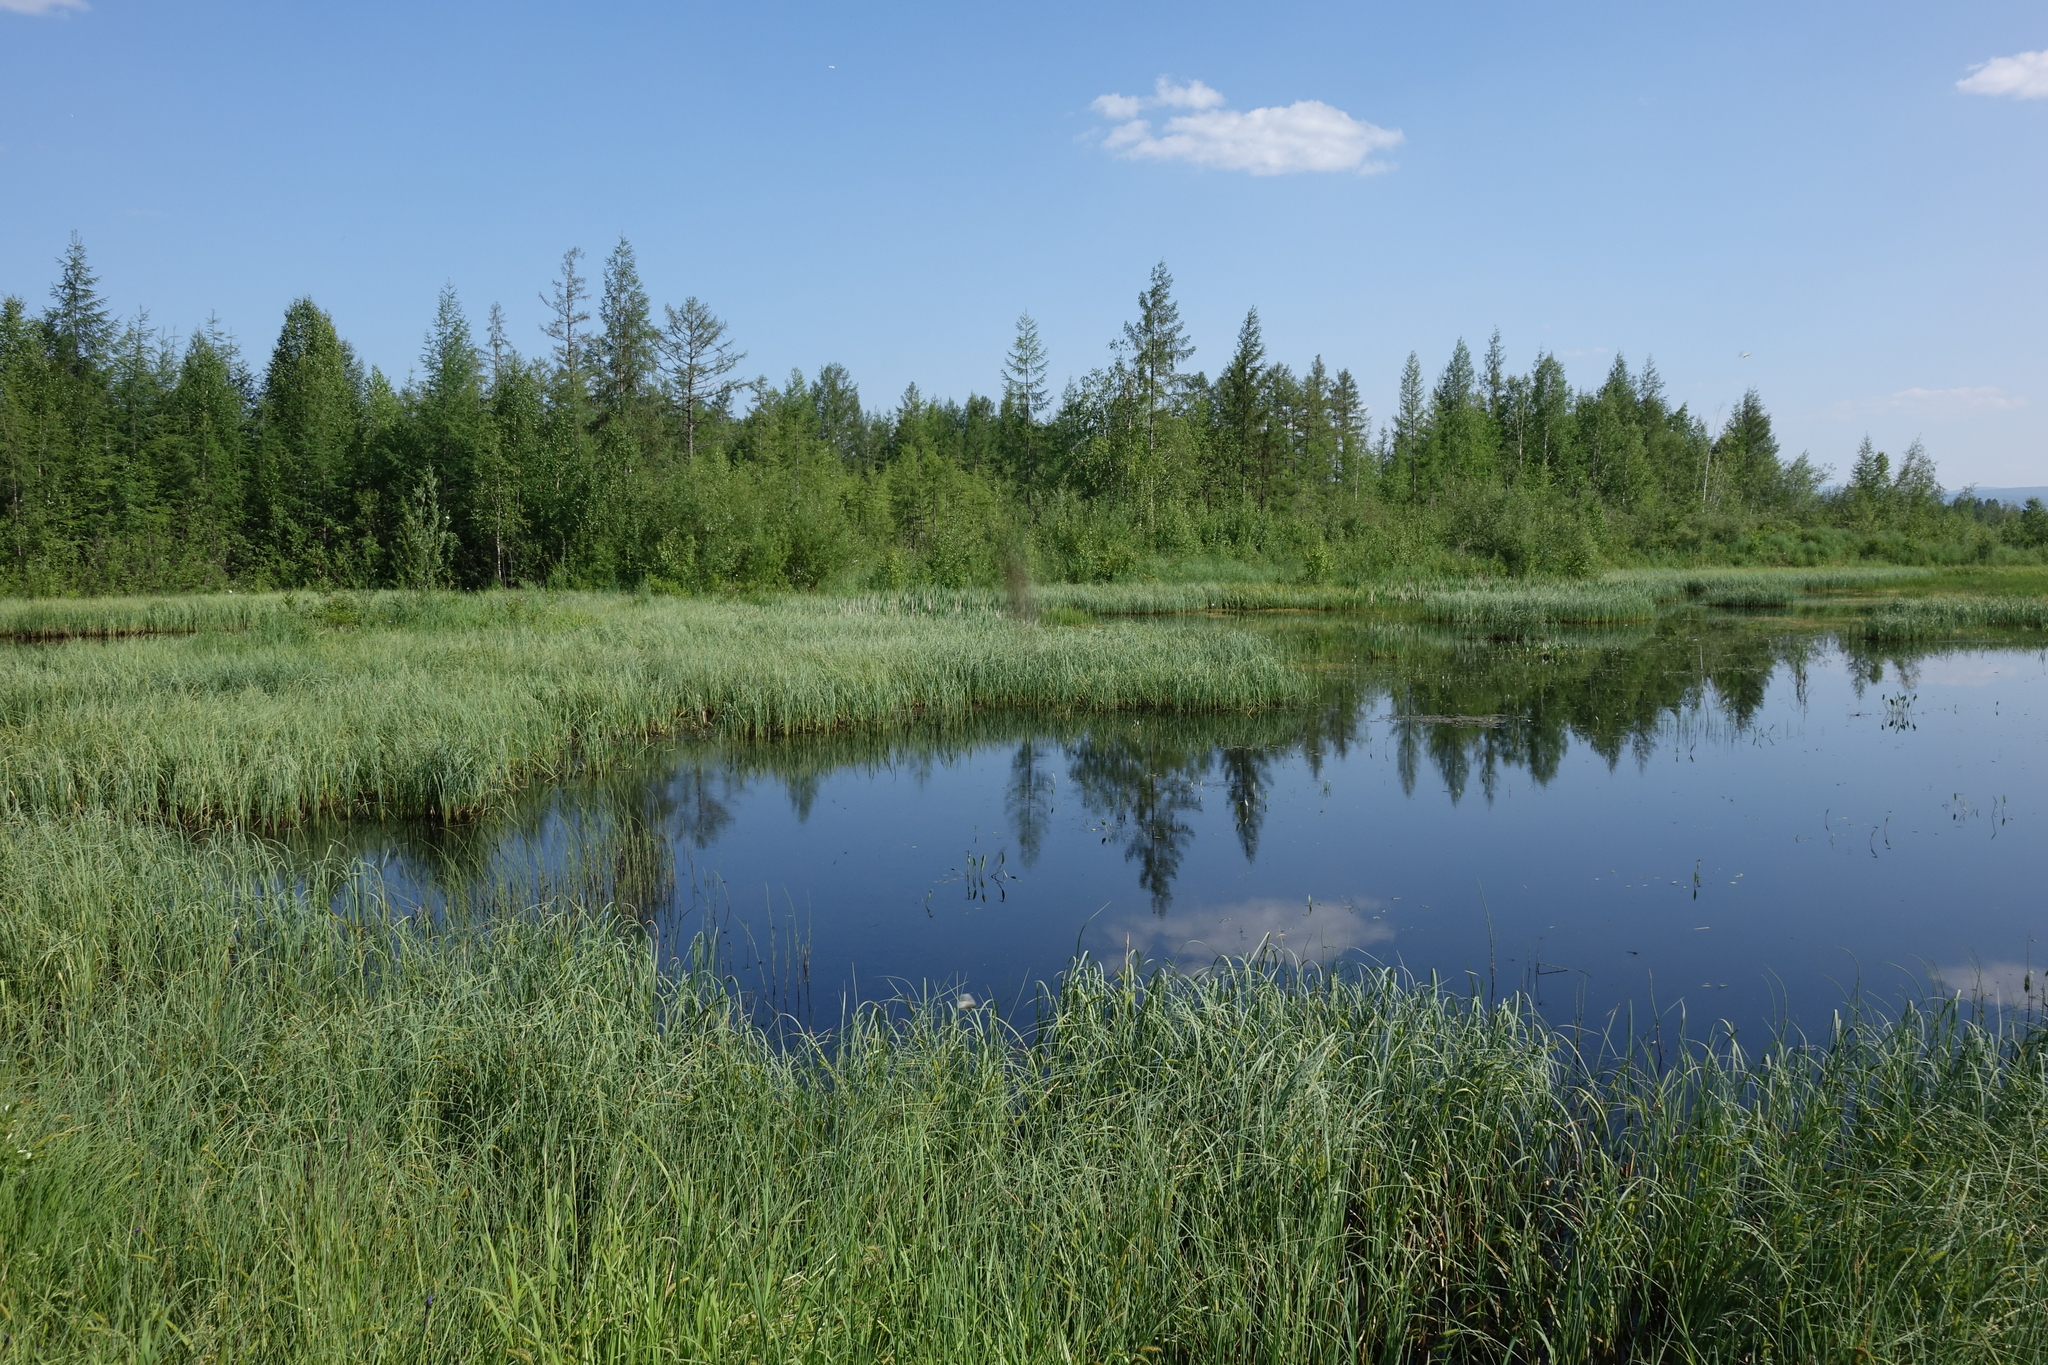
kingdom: Plantae
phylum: Tracheophyta
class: Pinopsida
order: Pinales
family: Pinaceae
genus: Larix
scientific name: Larix gmelinii
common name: Dahurian larch
